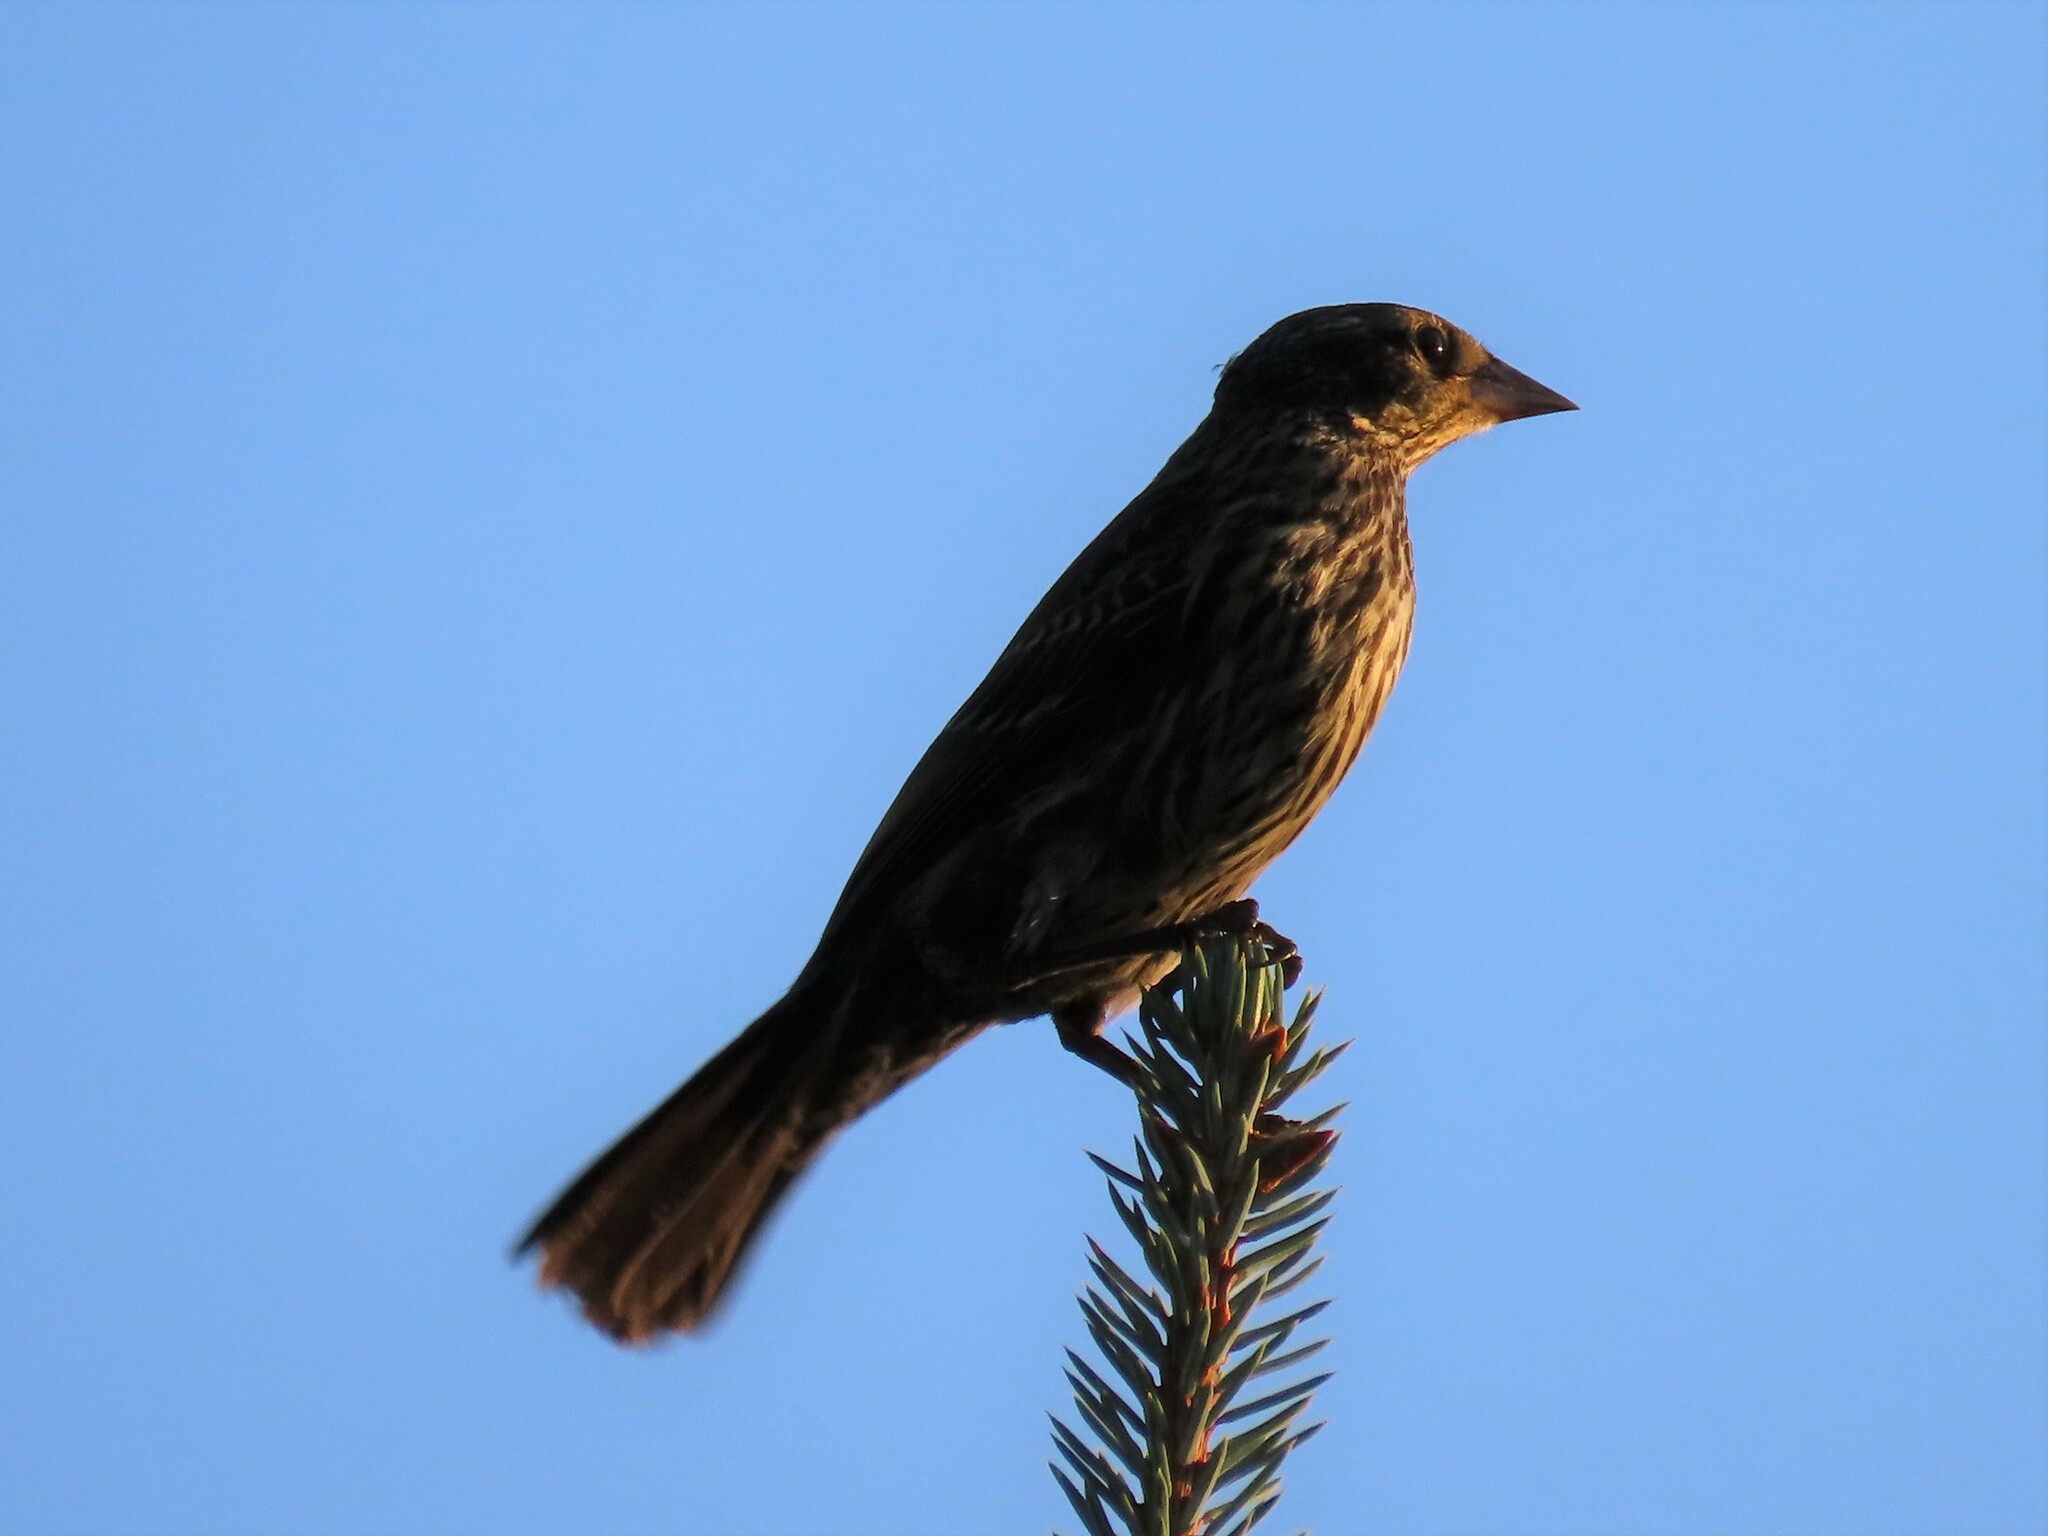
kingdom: Animalia
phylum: Chordata
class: Aves
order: Passeriformes
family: Icteridae
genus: Agelaius
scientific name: Agelaius phoeniceus
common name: Red-winged blackbird
